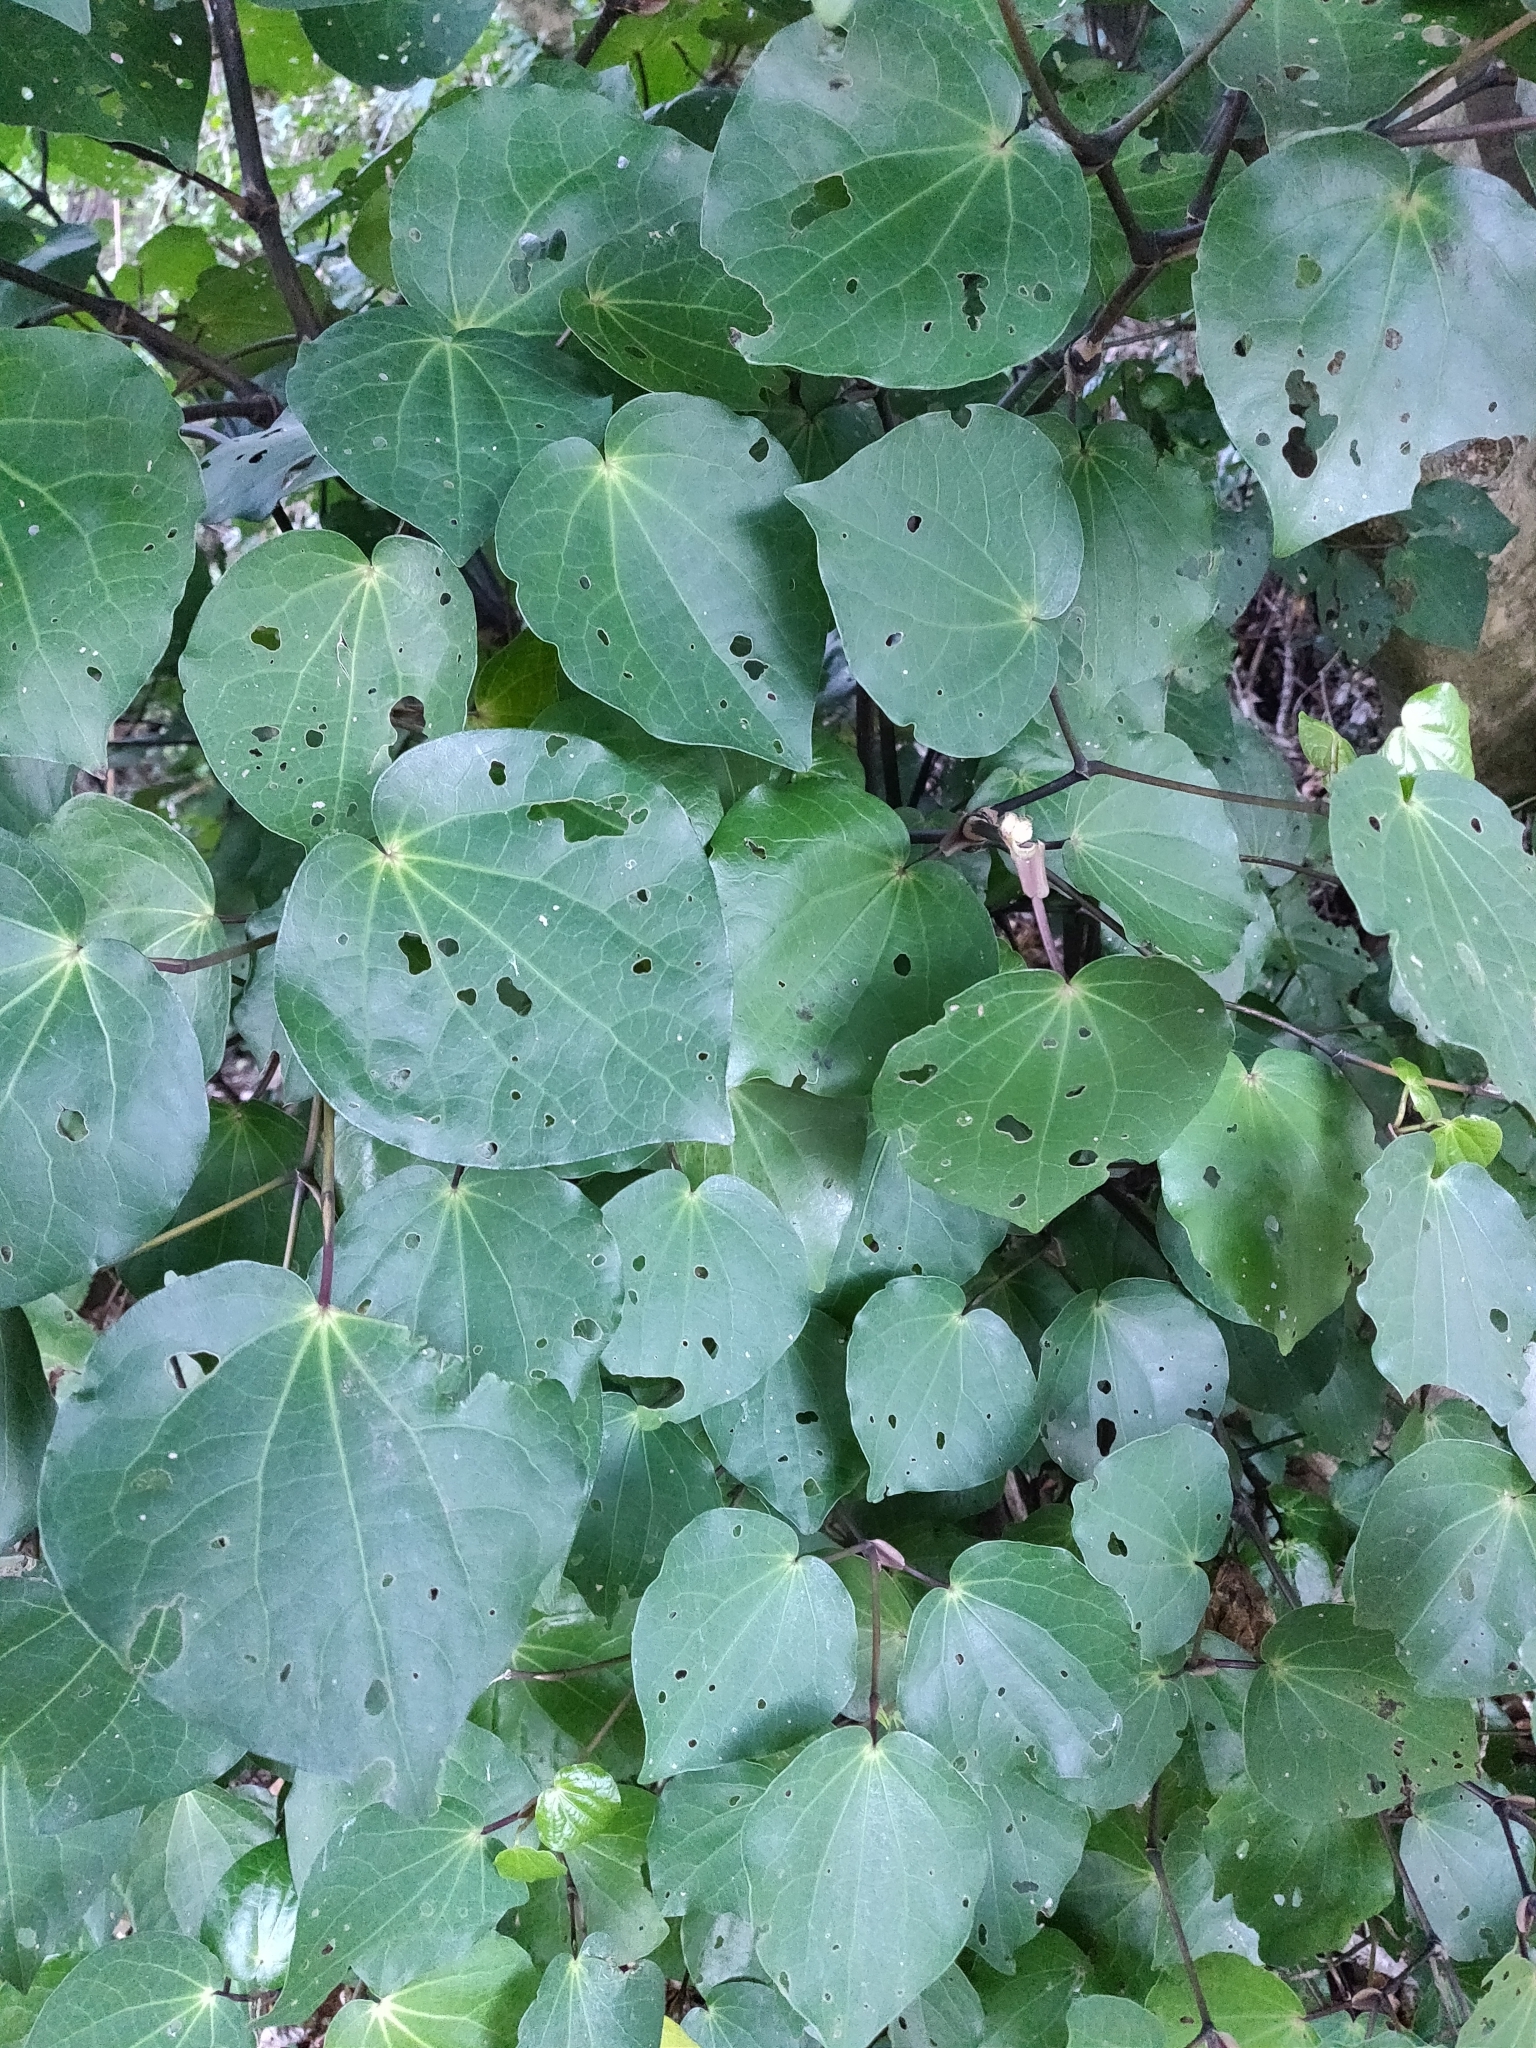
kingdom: Plantae
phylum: Tracheophyta
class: Magnoliopsida
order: Piperales
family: Piperaceae
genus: Macropiper
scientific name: Macropiper excelsum
